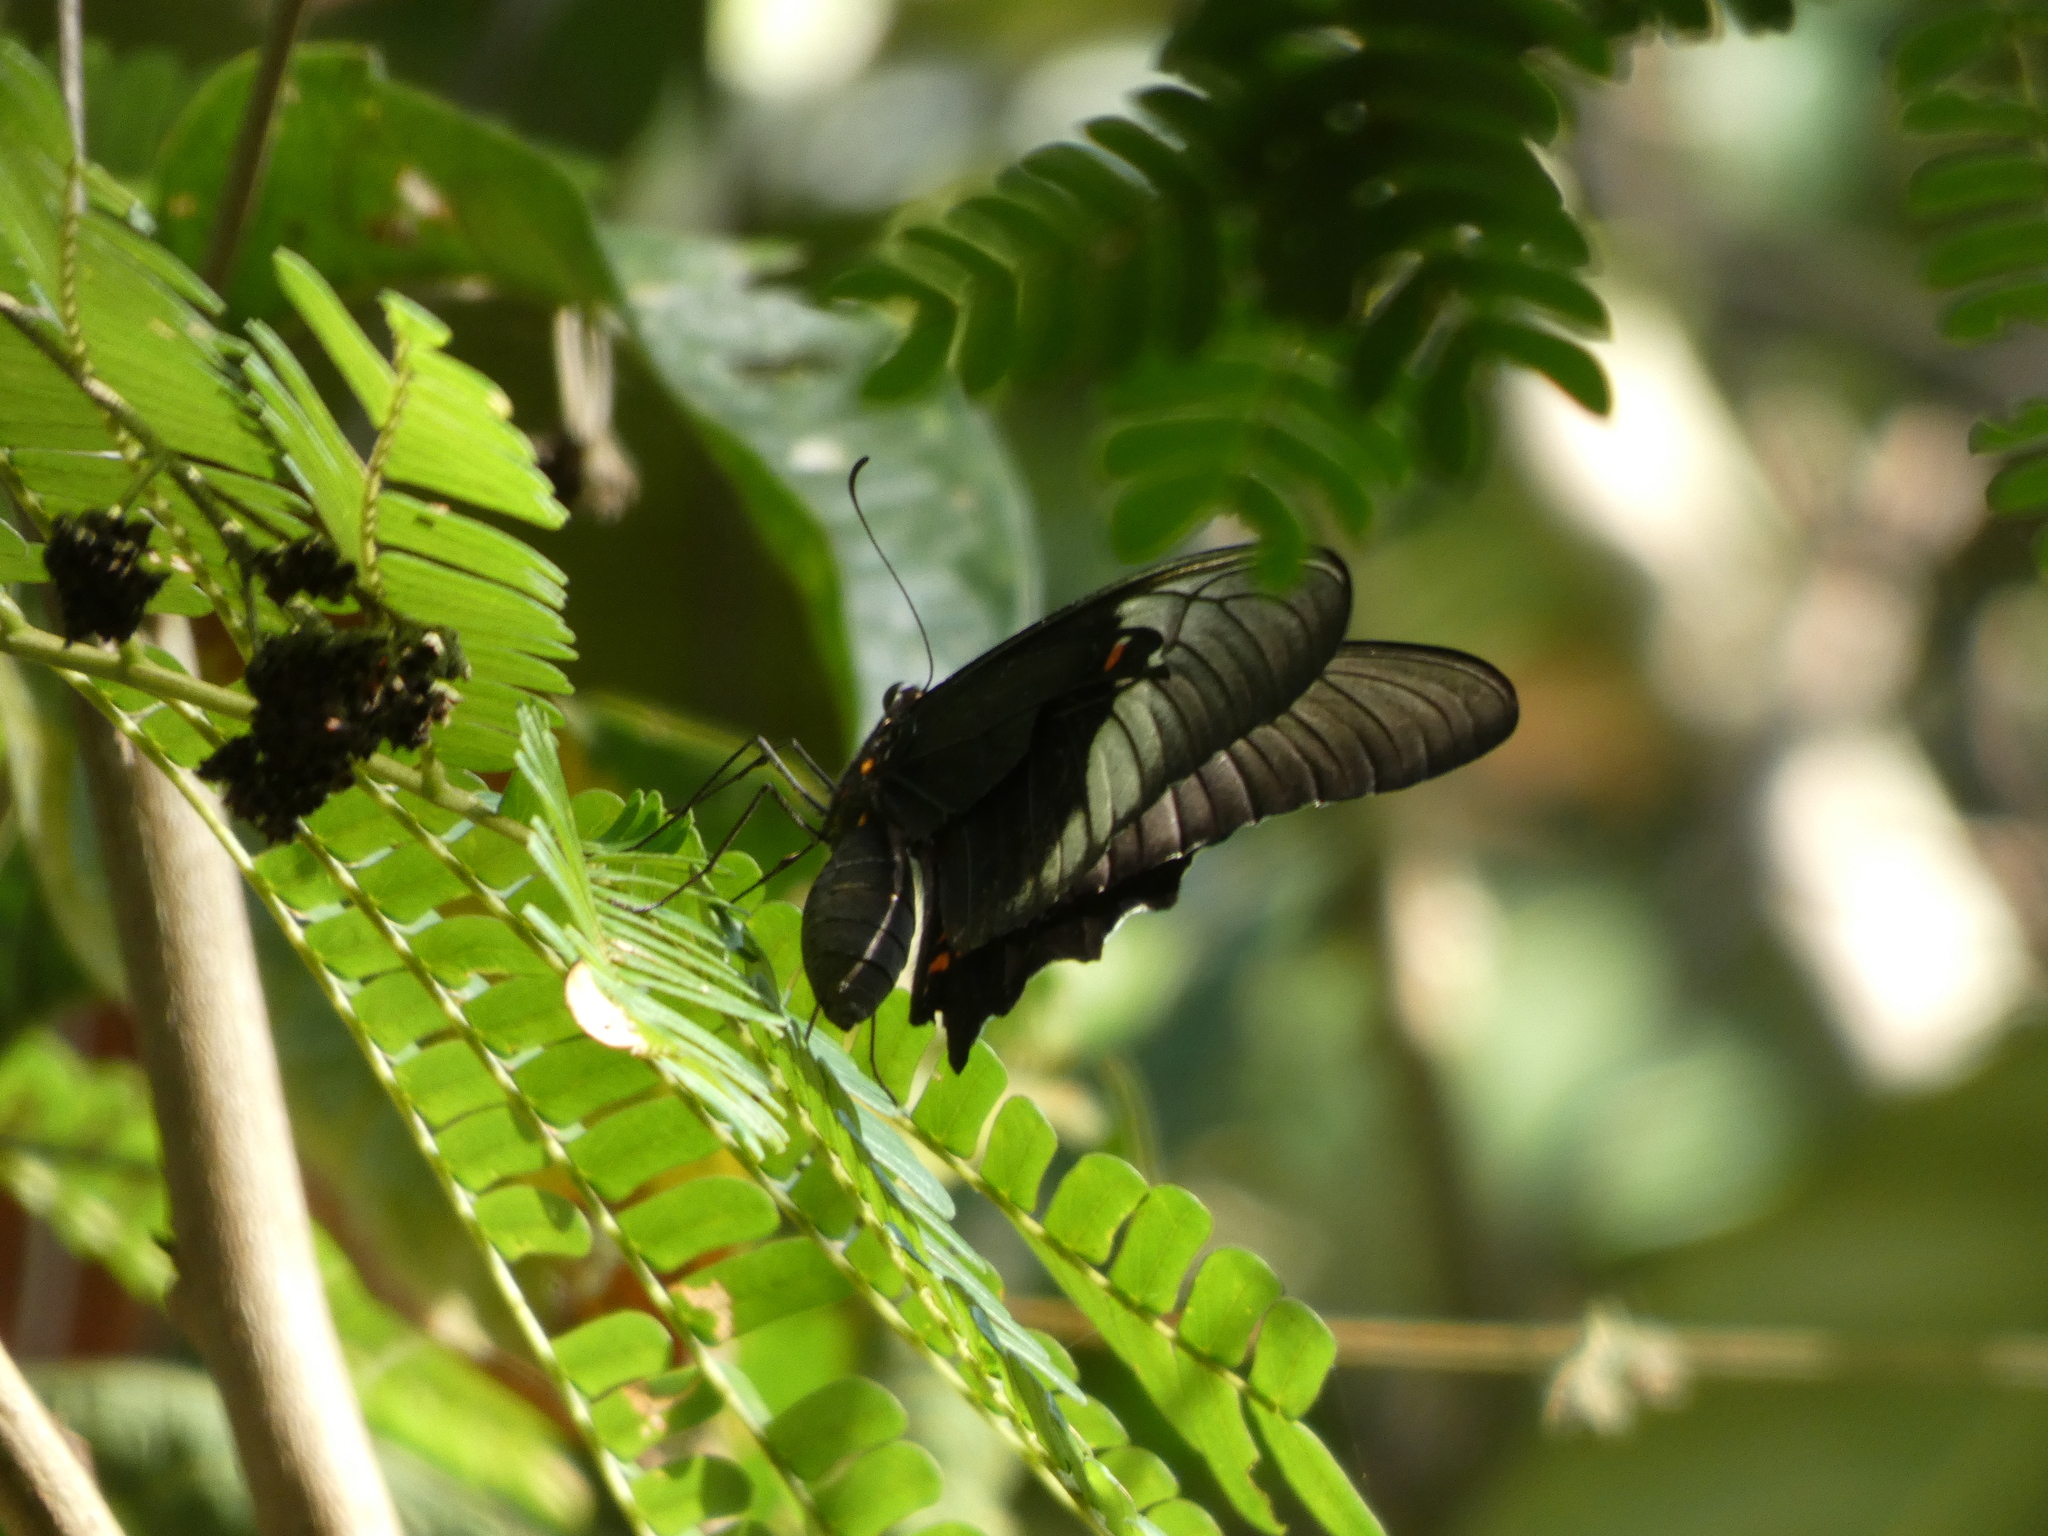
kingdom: Animalia
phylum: Arthropoda
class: Insecta
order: Lepidoptera
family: Papilionidae
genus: Papilio
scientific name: Papilio anchisiades
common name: Idaes swallowtail
